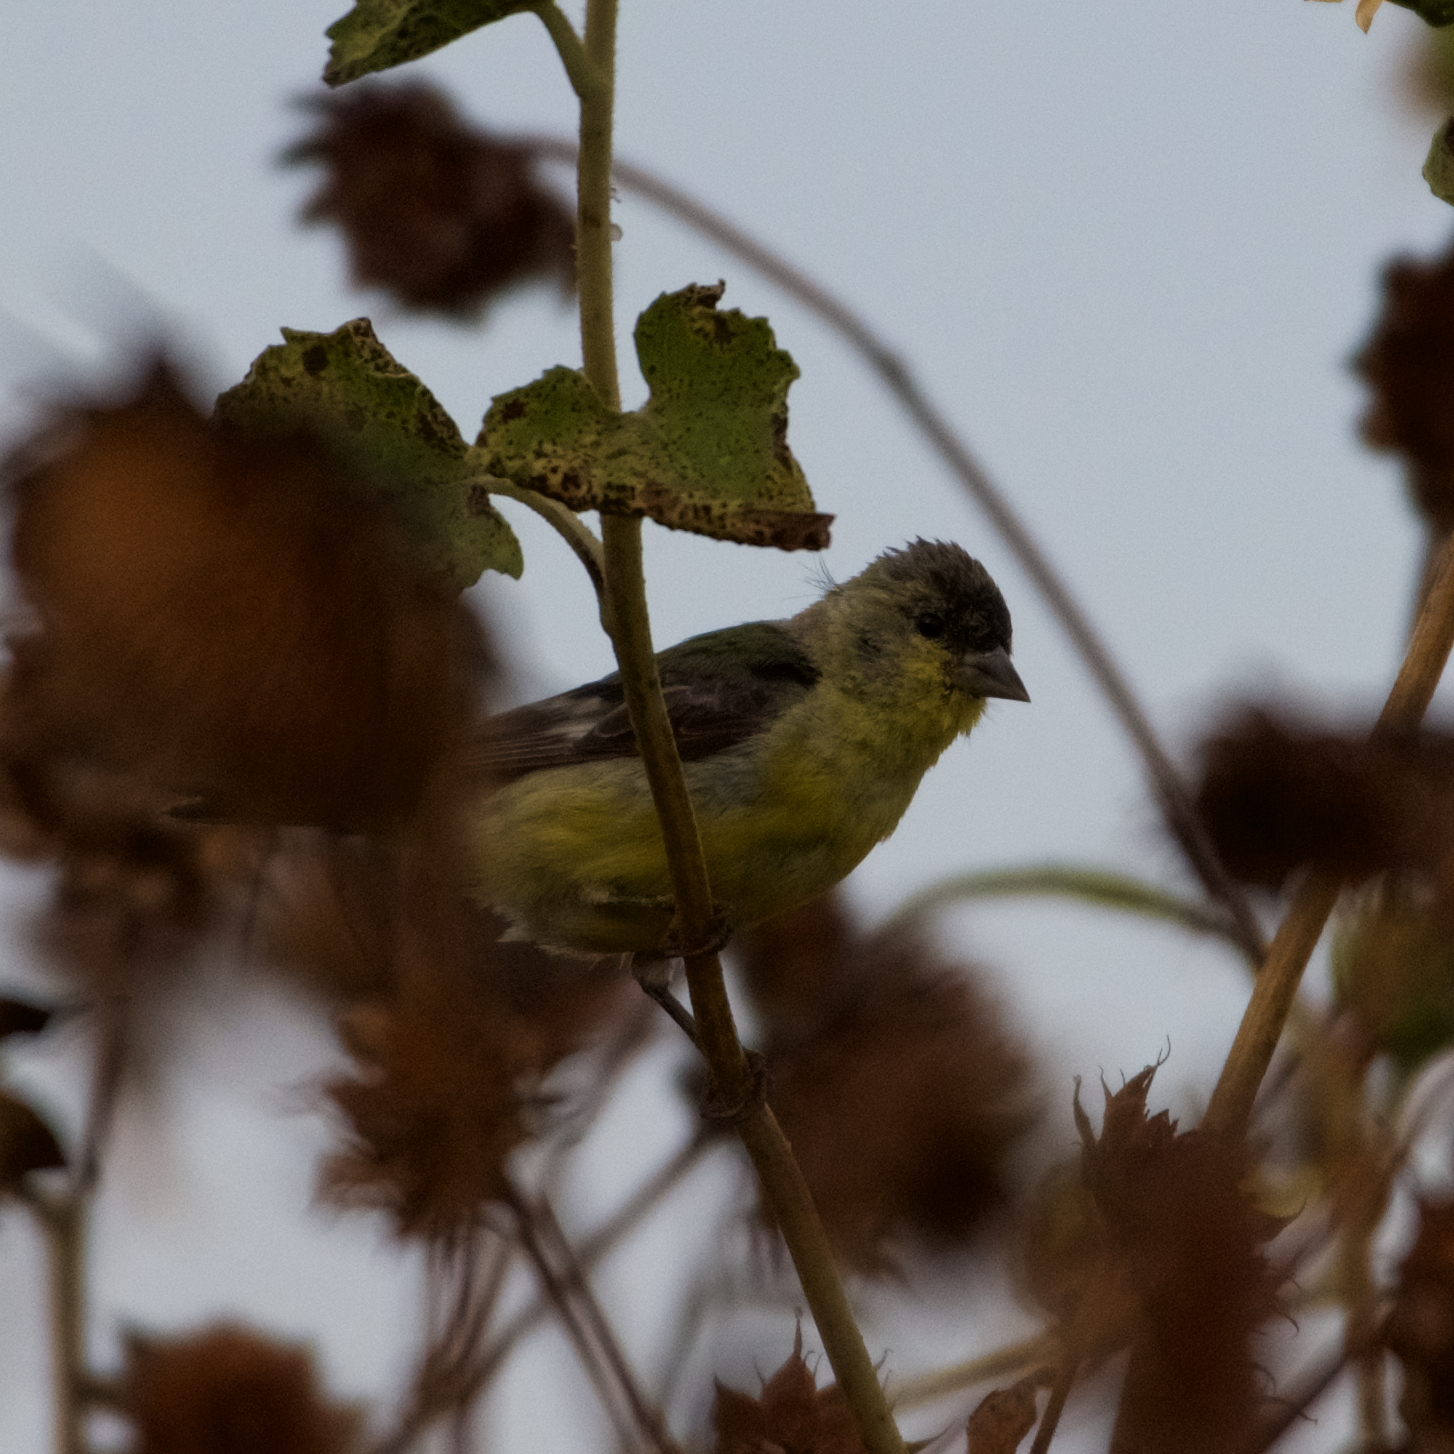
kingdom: Animalia
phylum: Chordata
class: Aves
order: Passeriformes
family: Fringillidae
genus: Spinus
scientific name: Spinus psaltria
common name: Lesser goldfinch
